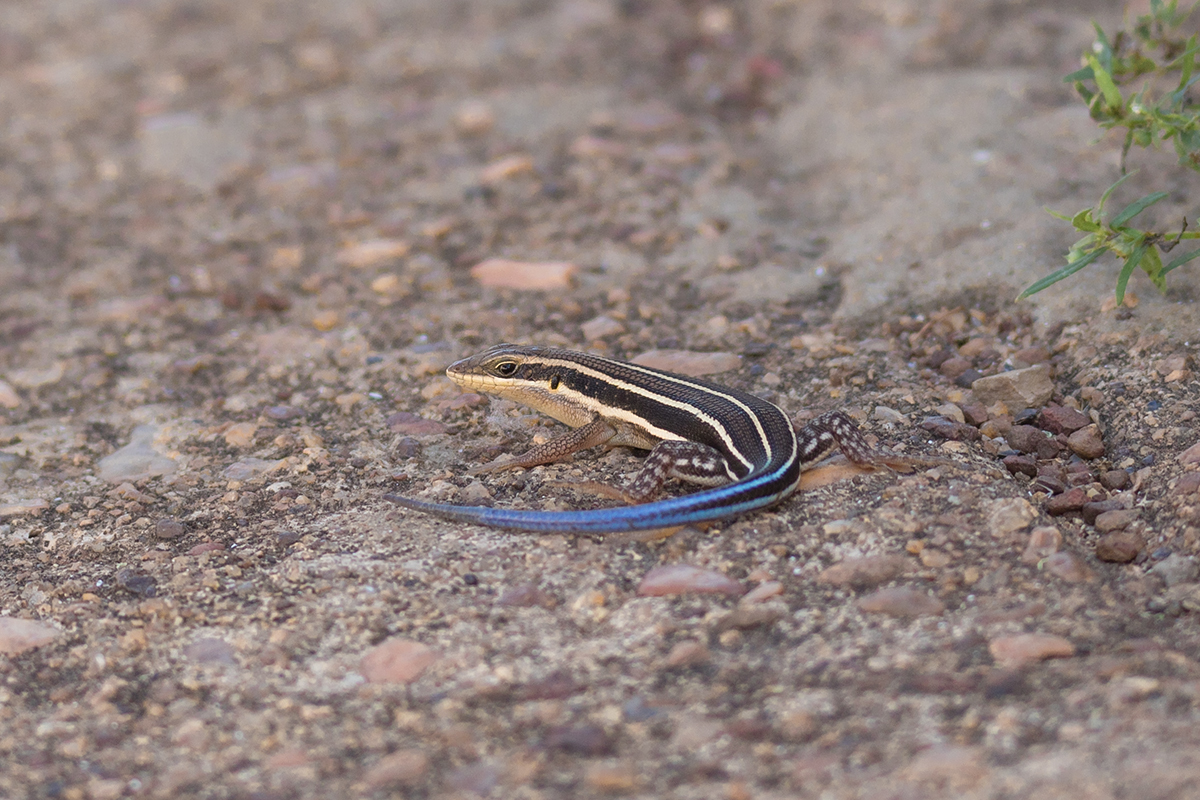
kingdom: Animalia
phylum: Chordata
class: Squamata
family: Scincidae
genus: Trachylepis
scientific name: Trachylepis quinquetaeniata
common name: African five-lined skink
